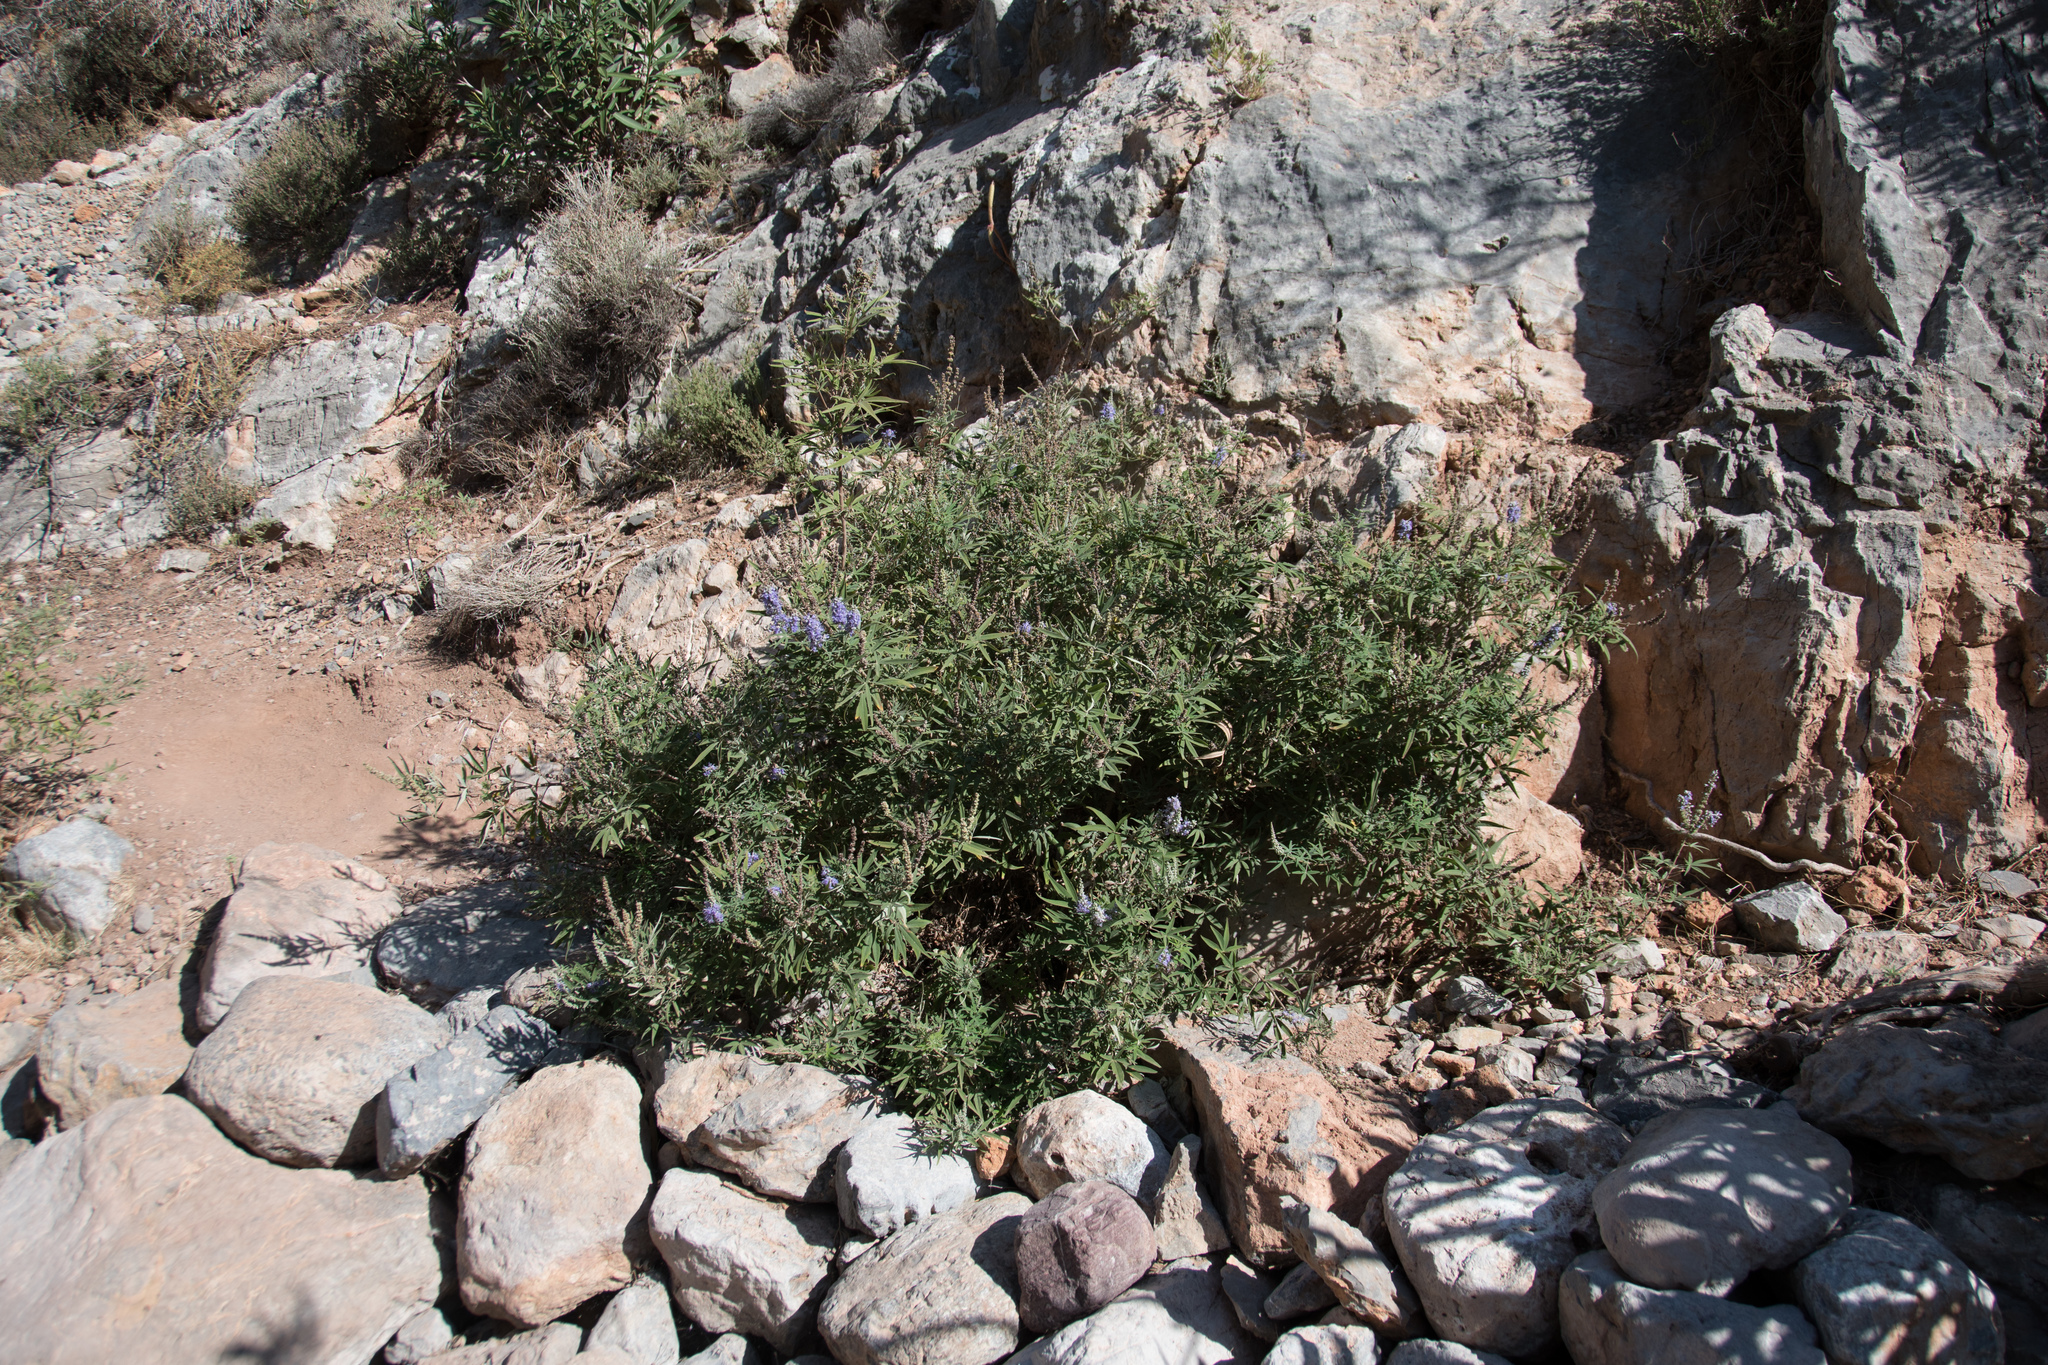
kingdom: Plantae
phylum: Tracheophyta
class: Magnoliopsida
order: Lamiales
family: Lamiaceae
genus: Vitex
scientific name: Vitex agnus-castus
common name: Chasteberry
